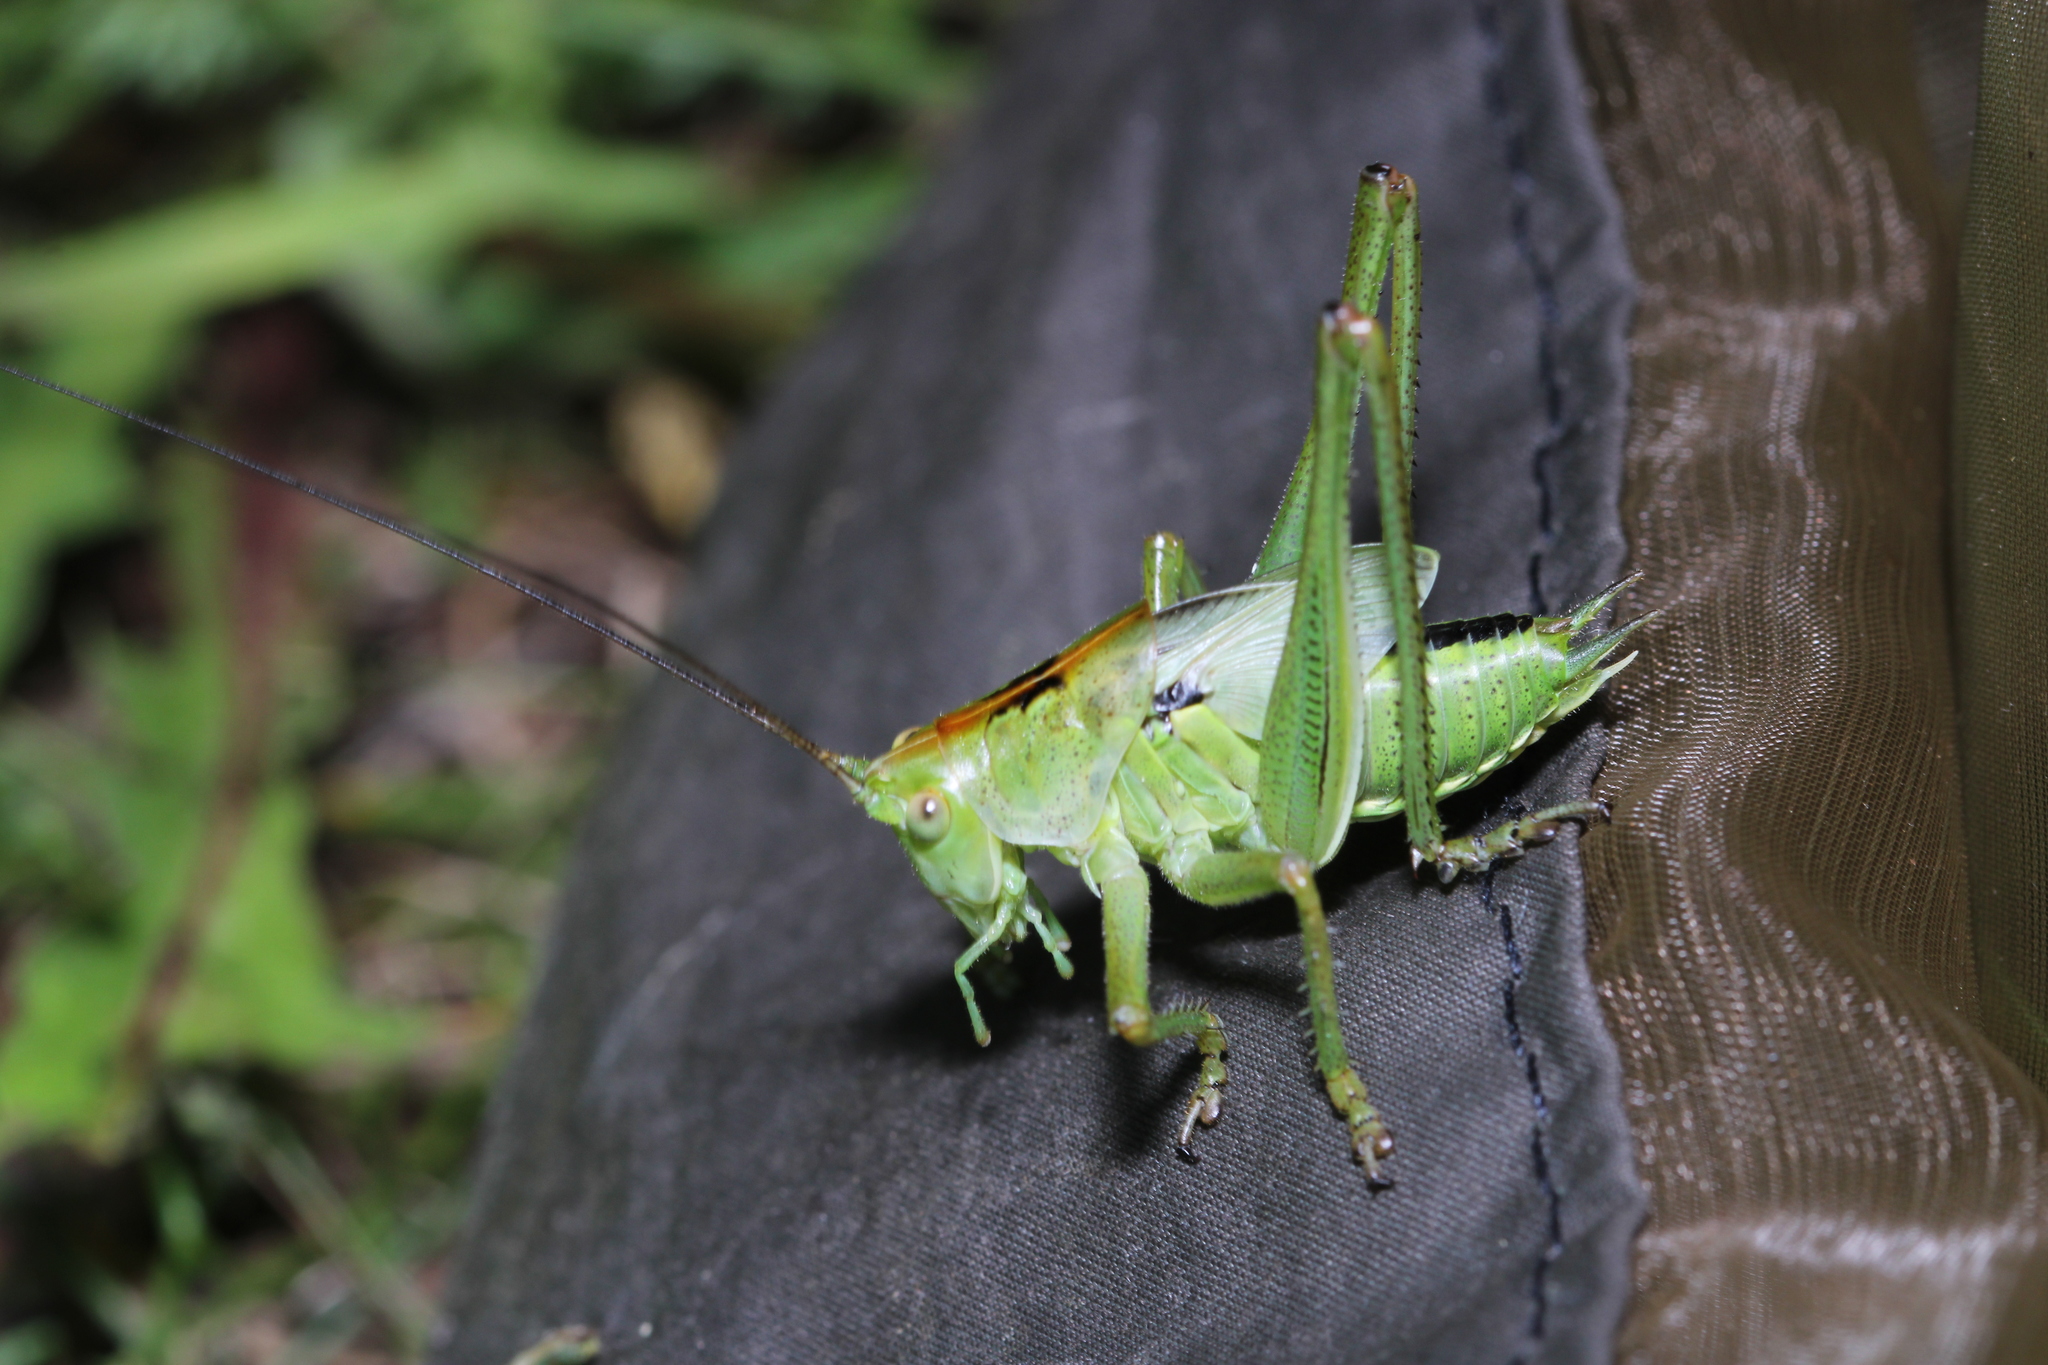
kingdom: Animalia
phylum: Arthropoda
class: Insecta
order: Orthoptera
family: Tettigoniidae
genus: Tettigonia
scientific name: Tettigonia viridissima
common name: Great green bush-cricket
